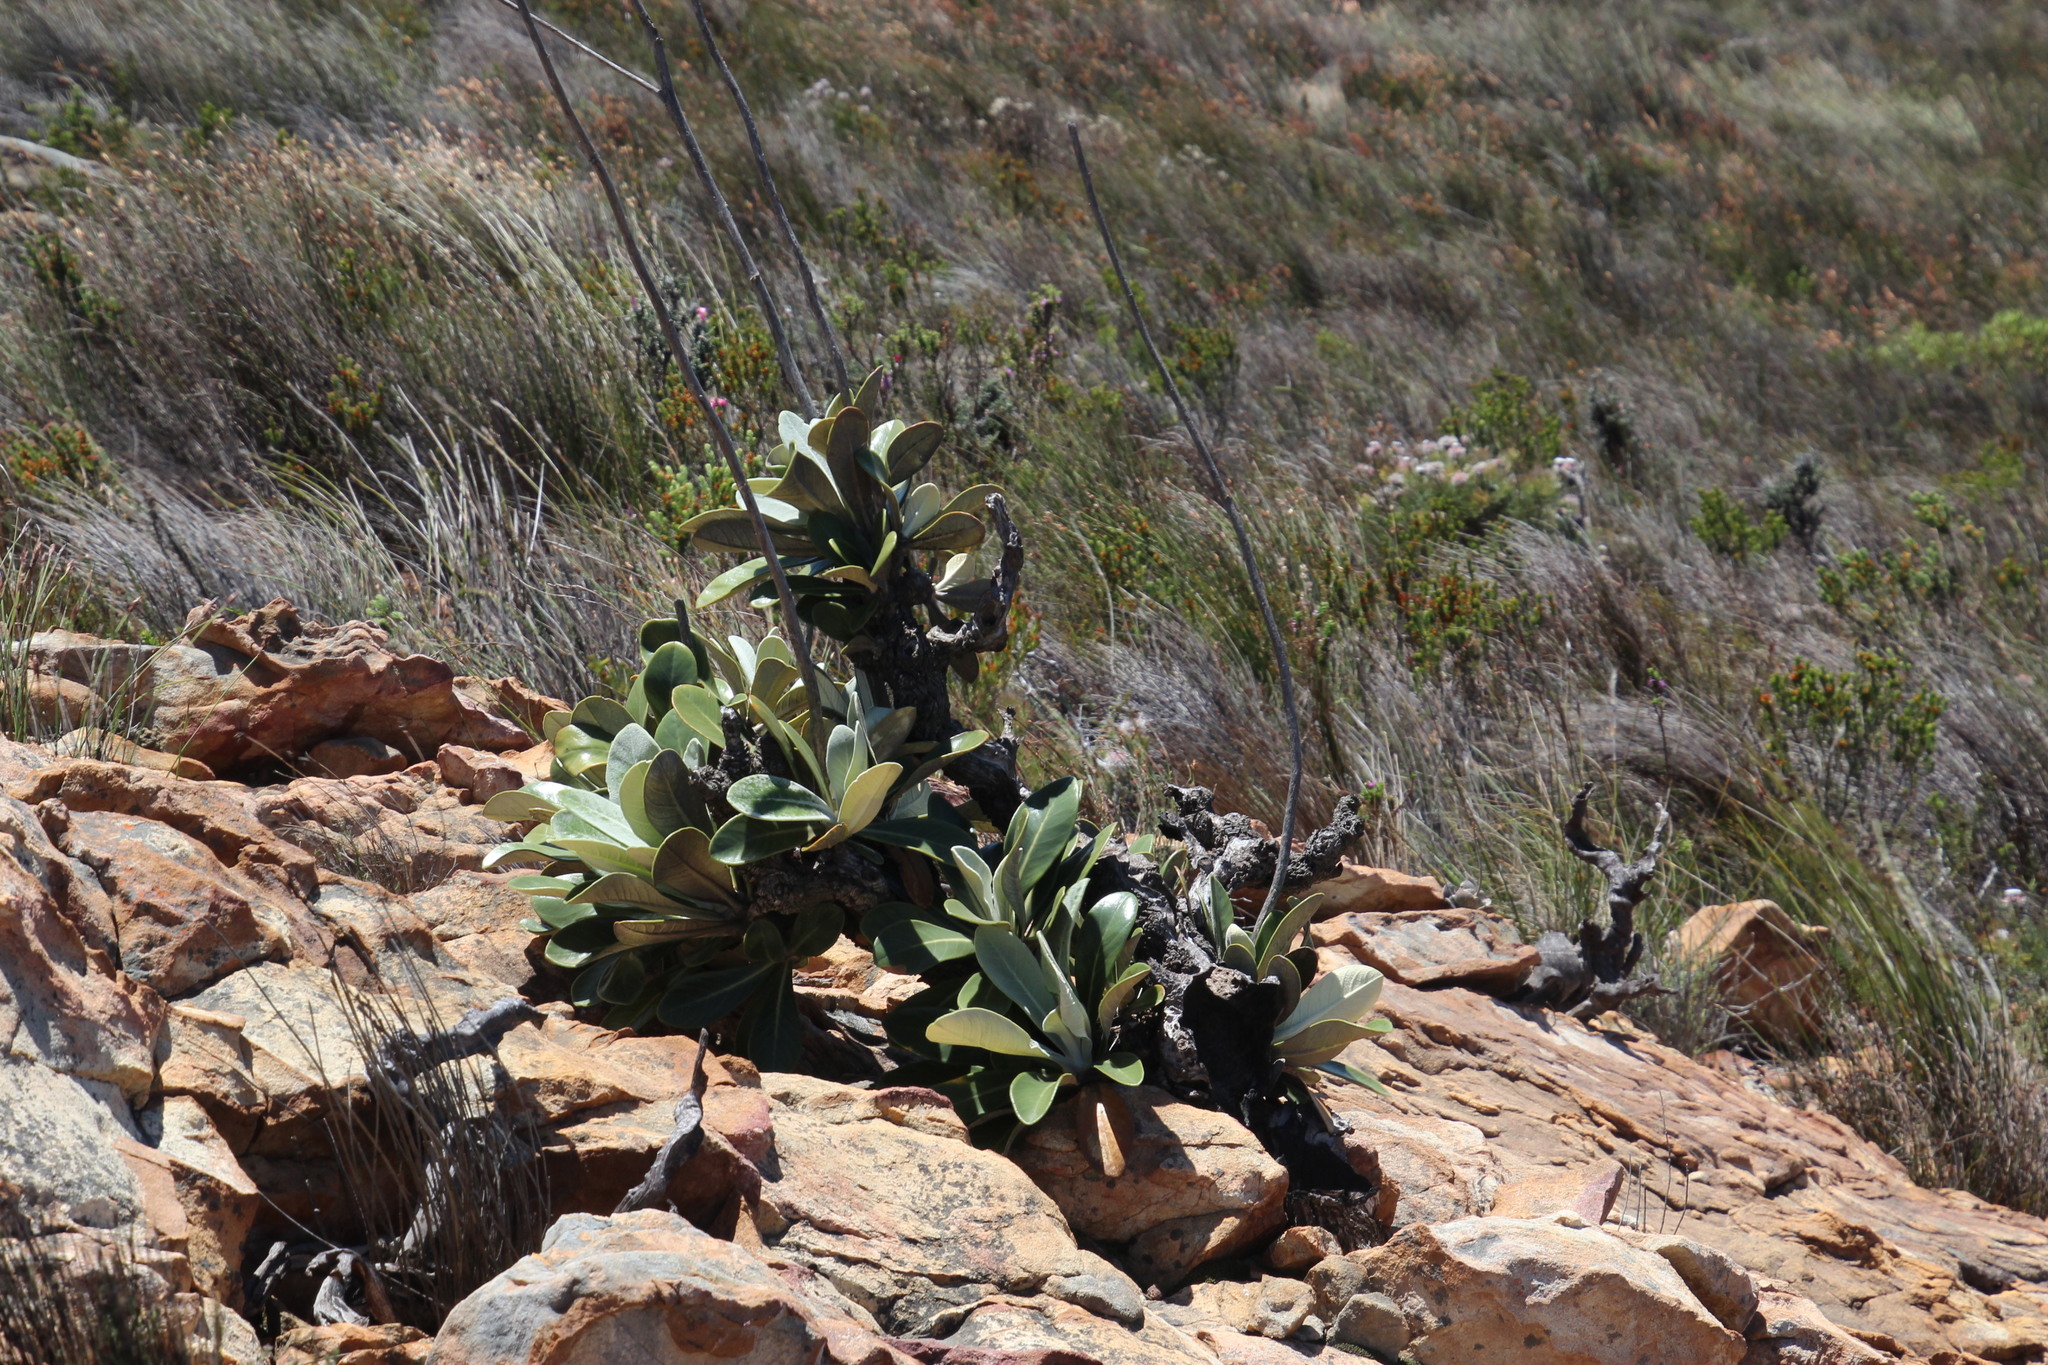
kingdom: Plantae
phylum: Tracheophyta
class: Magnoliopsida
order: Asterales
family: Asteraceae
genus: Oldenburgia
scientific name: Oldenburgia papionum
